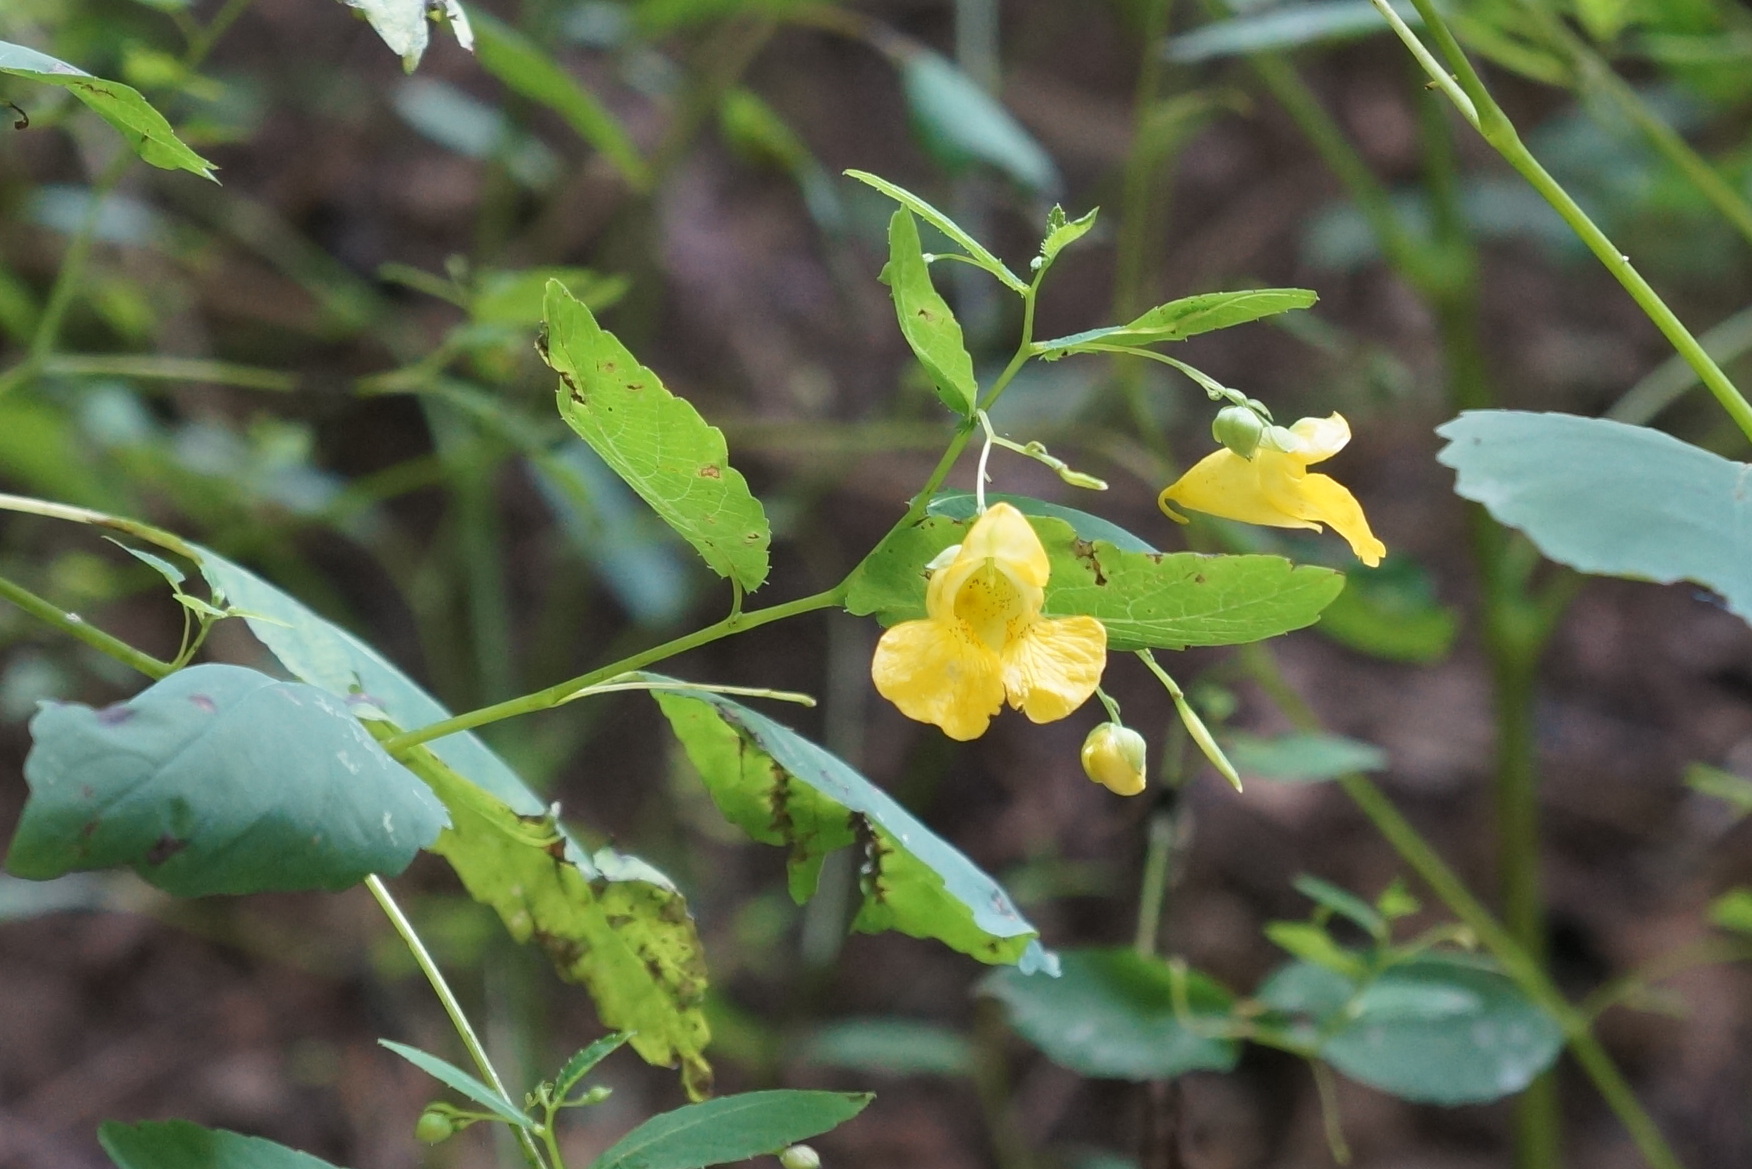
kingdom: Plantae
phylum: Tracheophyta
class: Magnoliopsida
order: Ericales
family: Balsaminaceae
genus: Impatiens
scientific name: Impatiens pallida
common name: Pale snapweed
